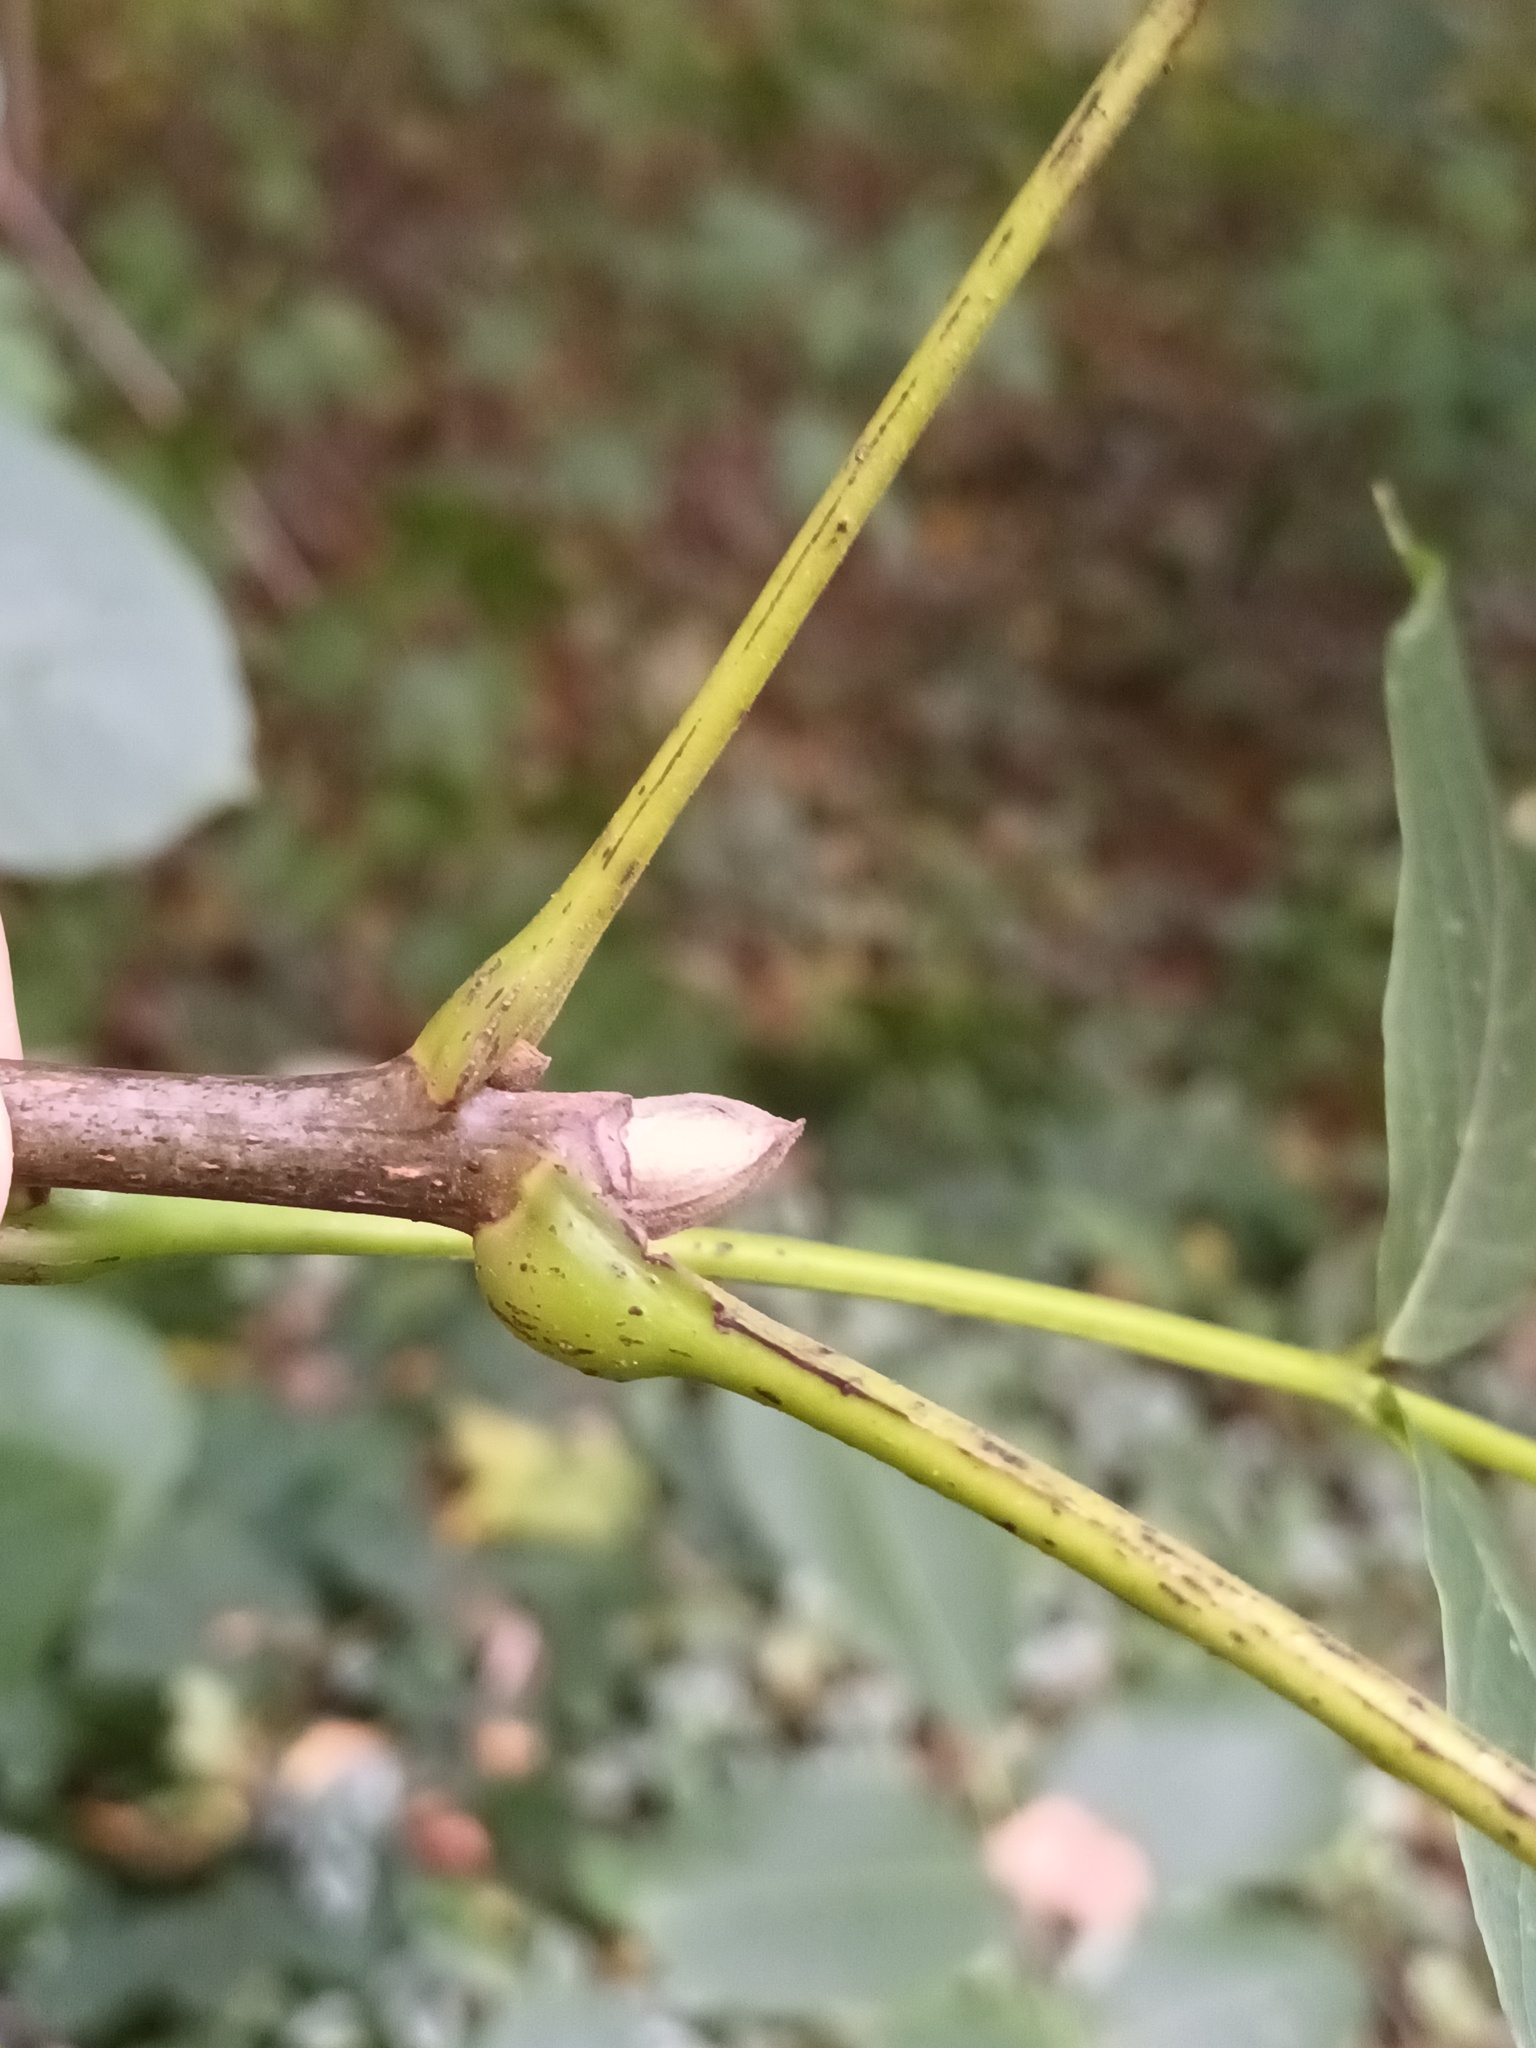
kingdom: Plantae
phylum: Tracheophyta
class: Magnoliopsida
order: Fagales
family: Juglandaceae
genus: Juglans
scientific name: Juglans regia
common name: Walnut
